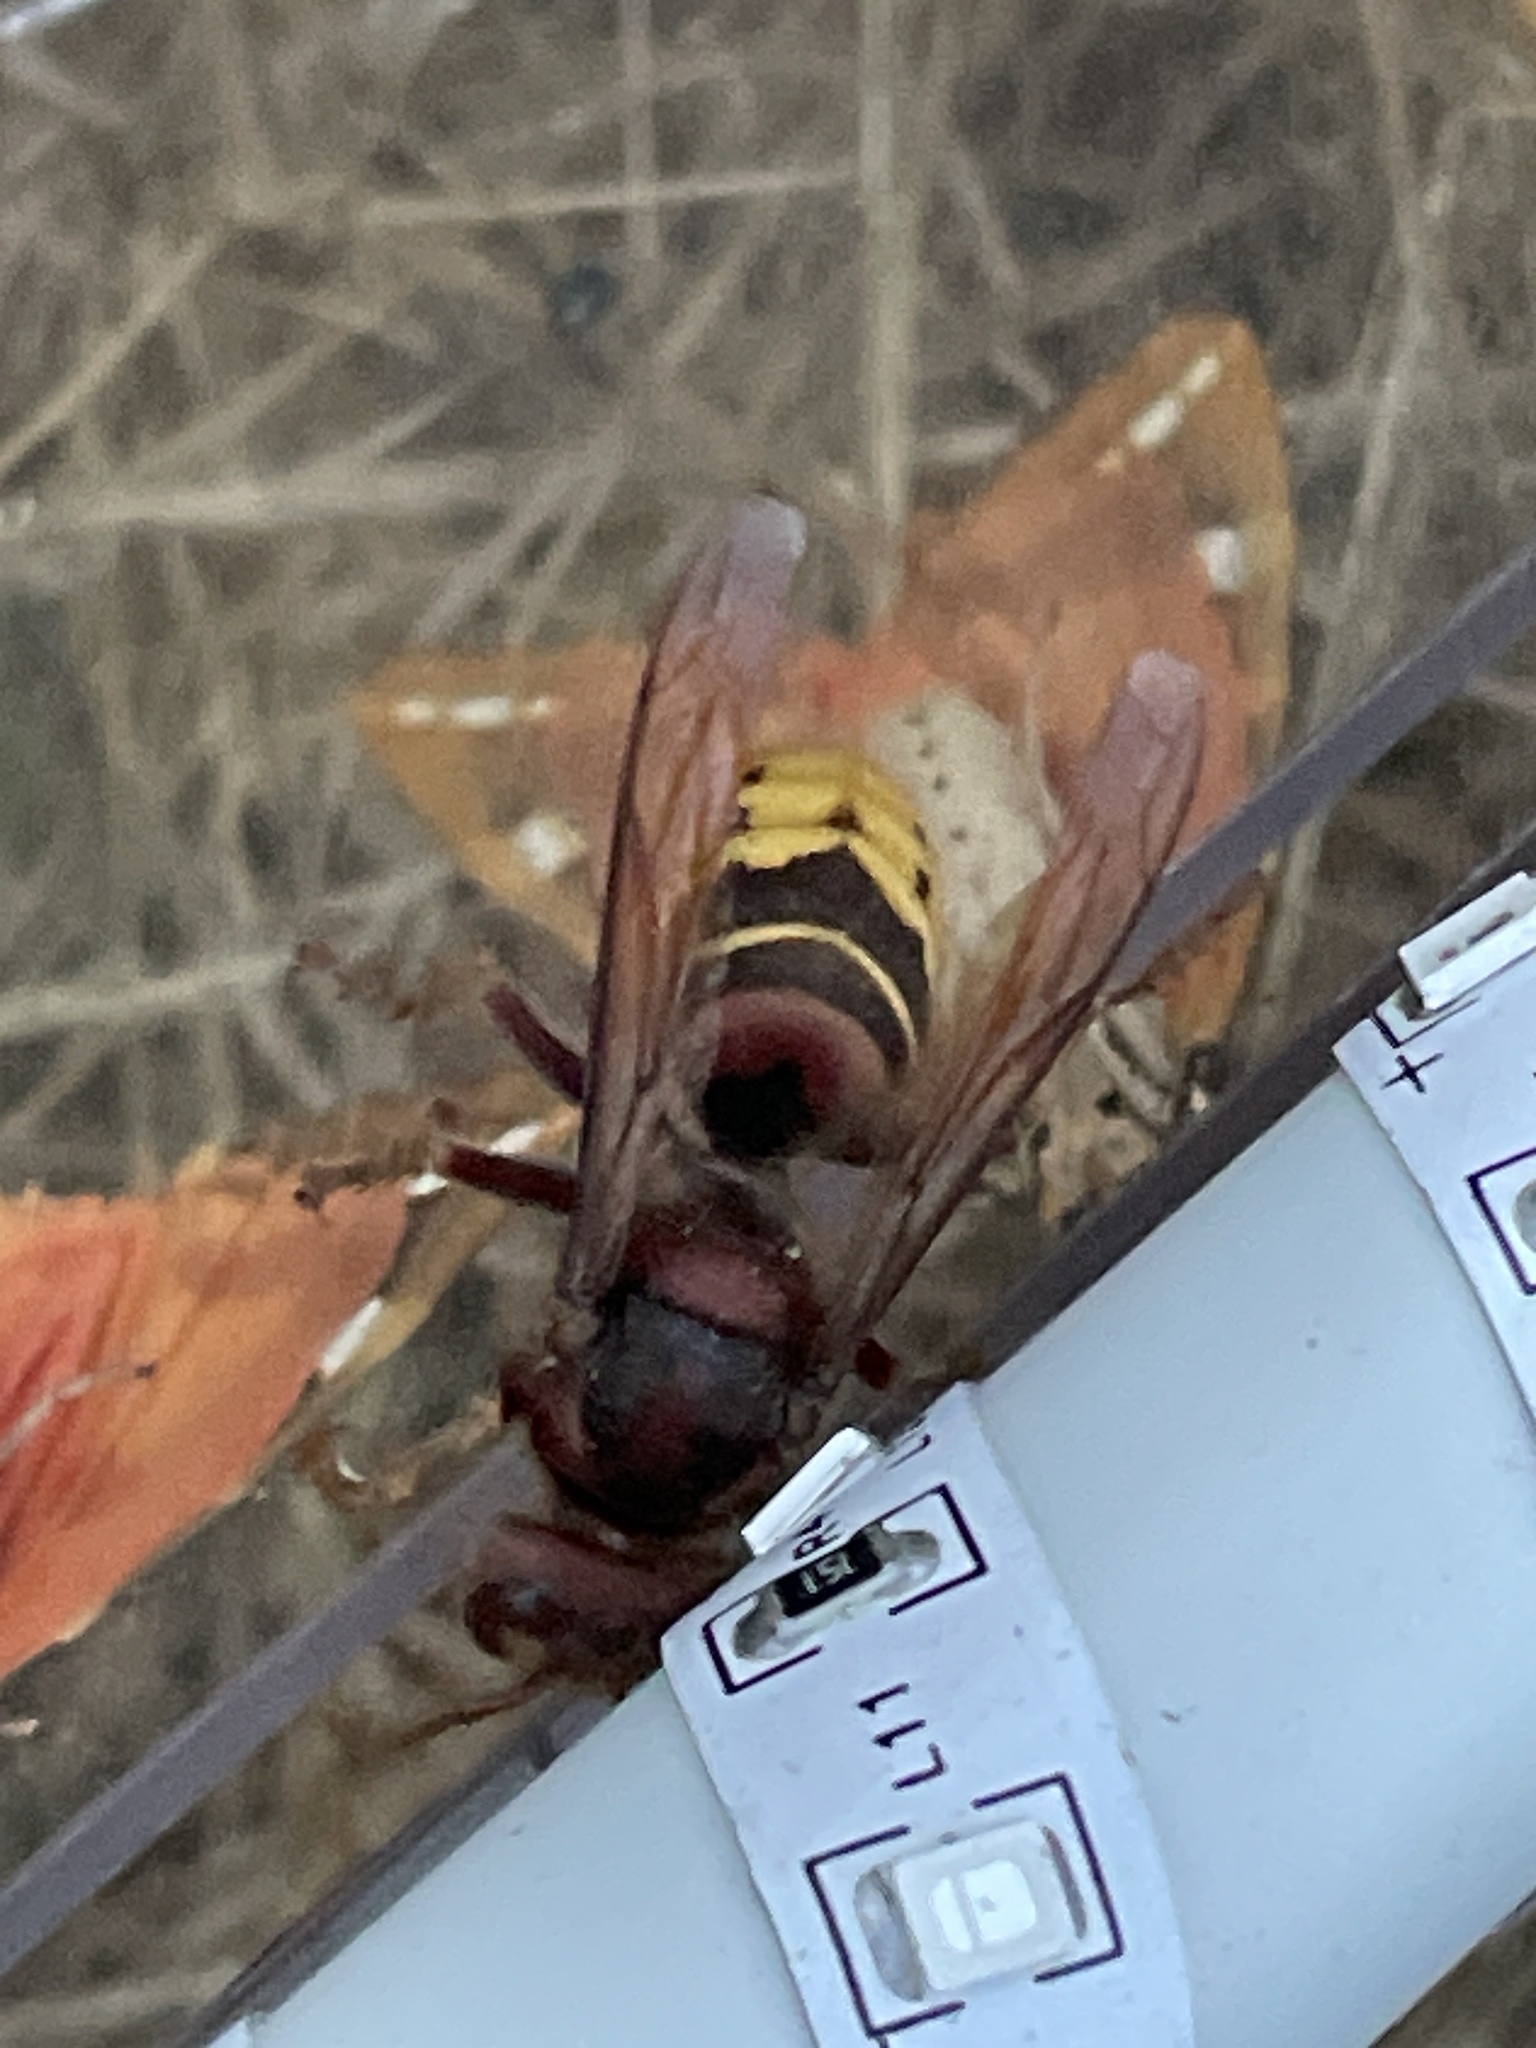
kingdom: Animalia
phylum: Arthropoda
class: Insecta
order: Hymenoptera
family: Vespidae
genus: Vespa
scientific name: Vespa crabro
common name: Hornet
